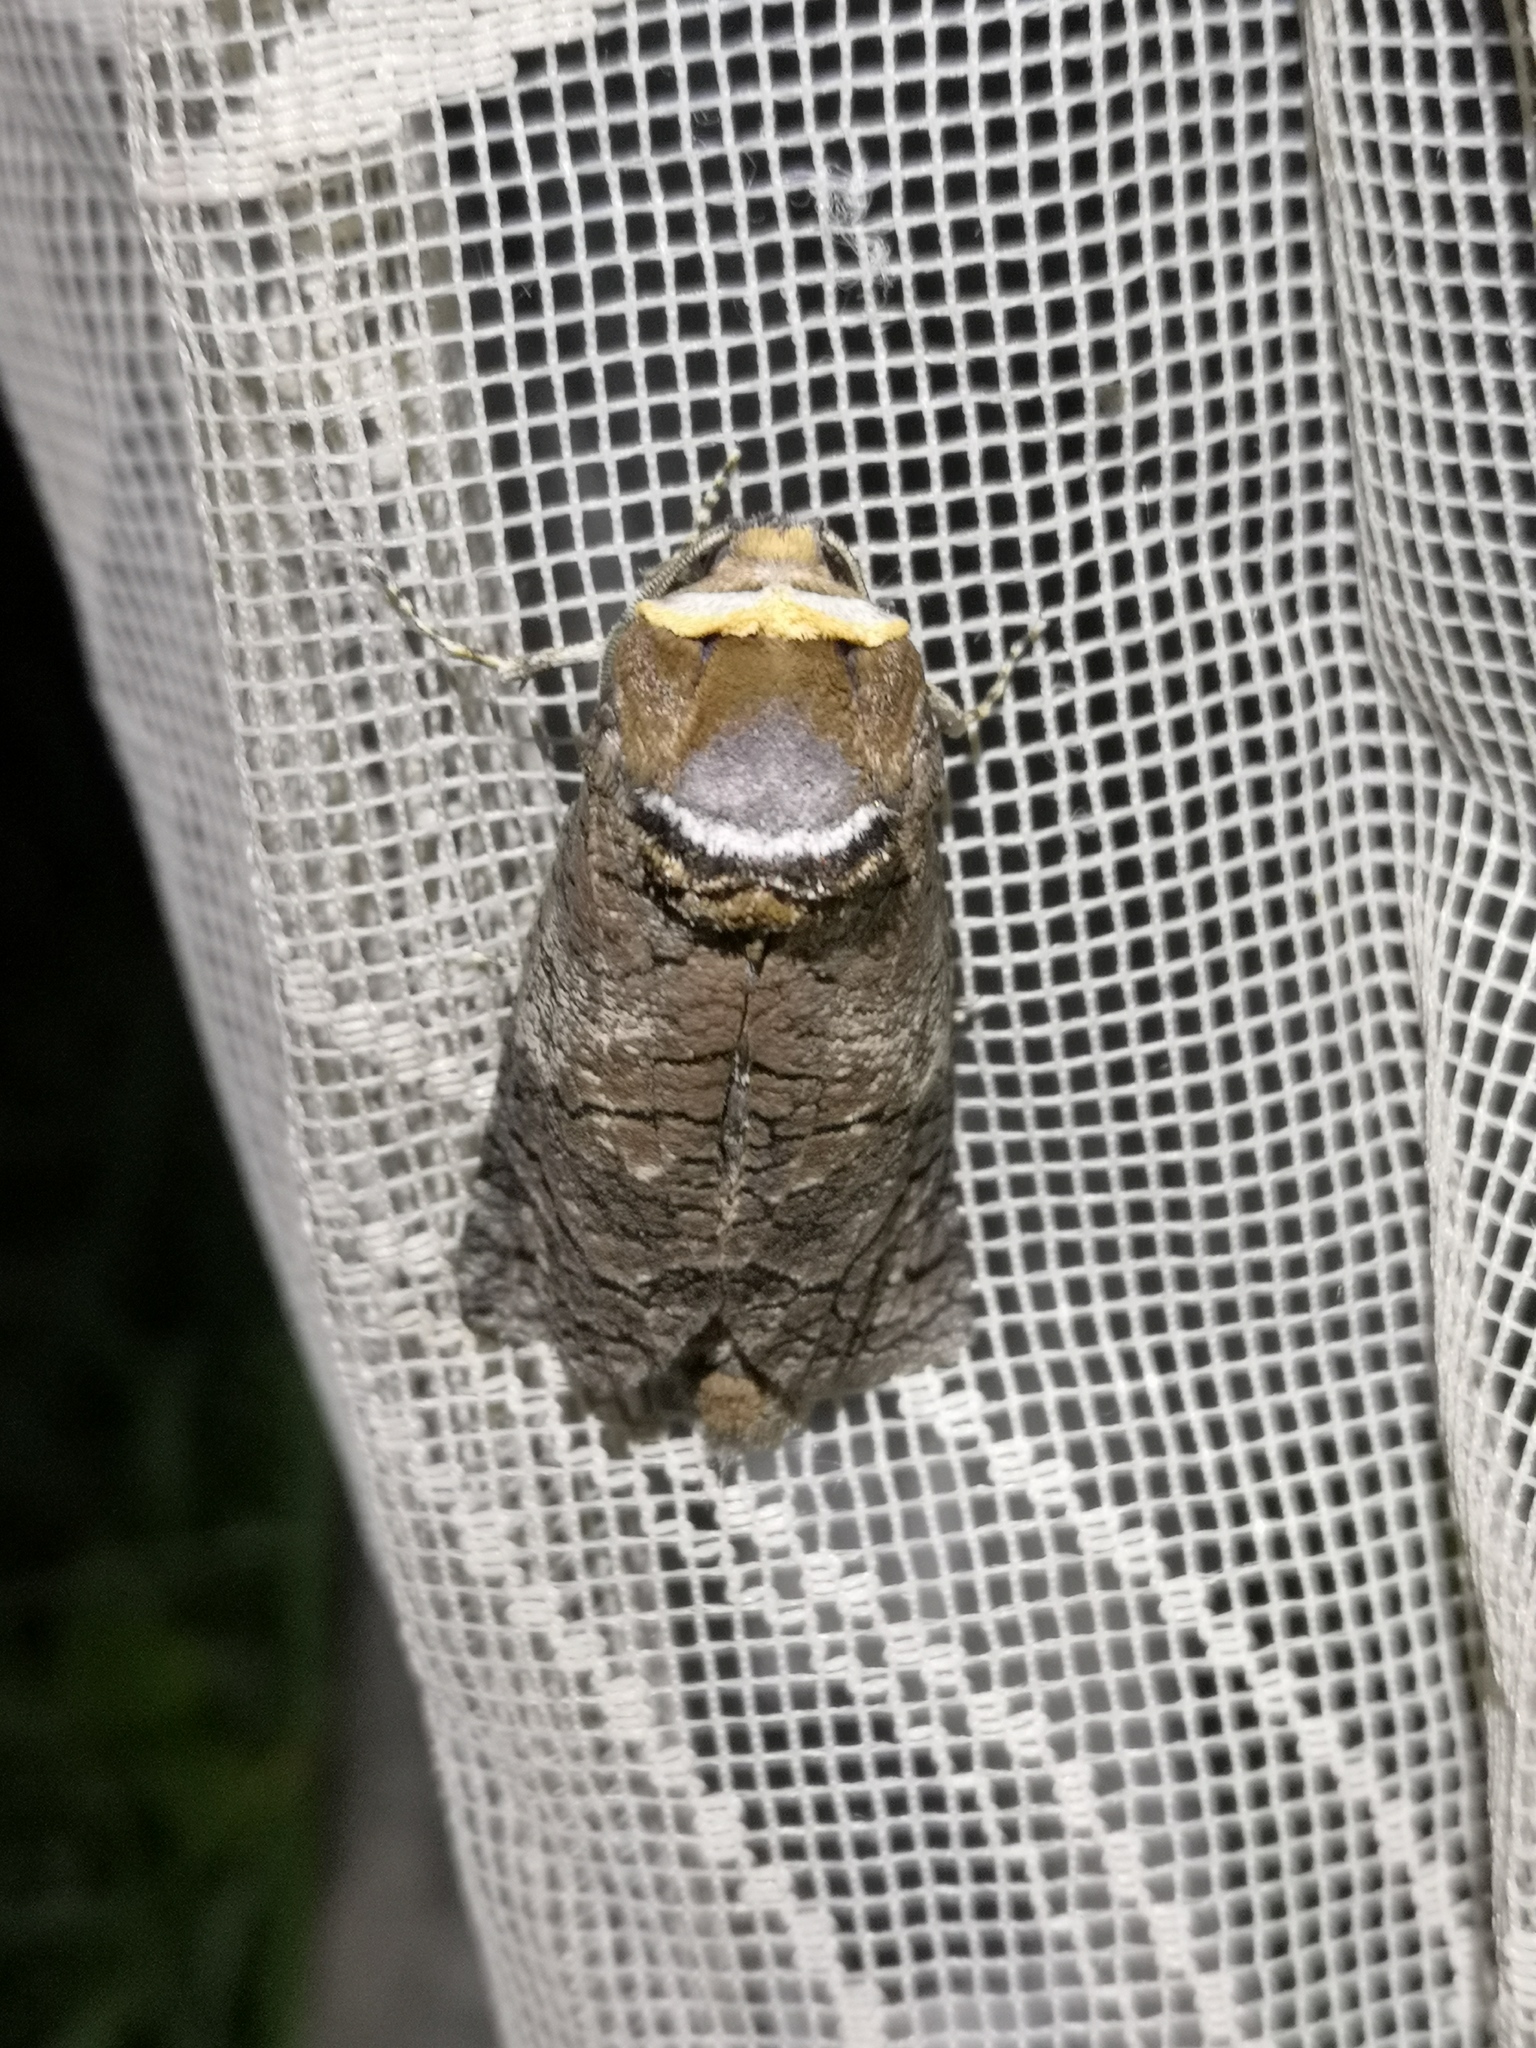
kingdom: Animalia
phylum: Arthropoda
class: Insecta
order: Lepidoptera
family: Cossidae
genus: Cossus
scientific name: Cossus cossus
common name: Goat moth
